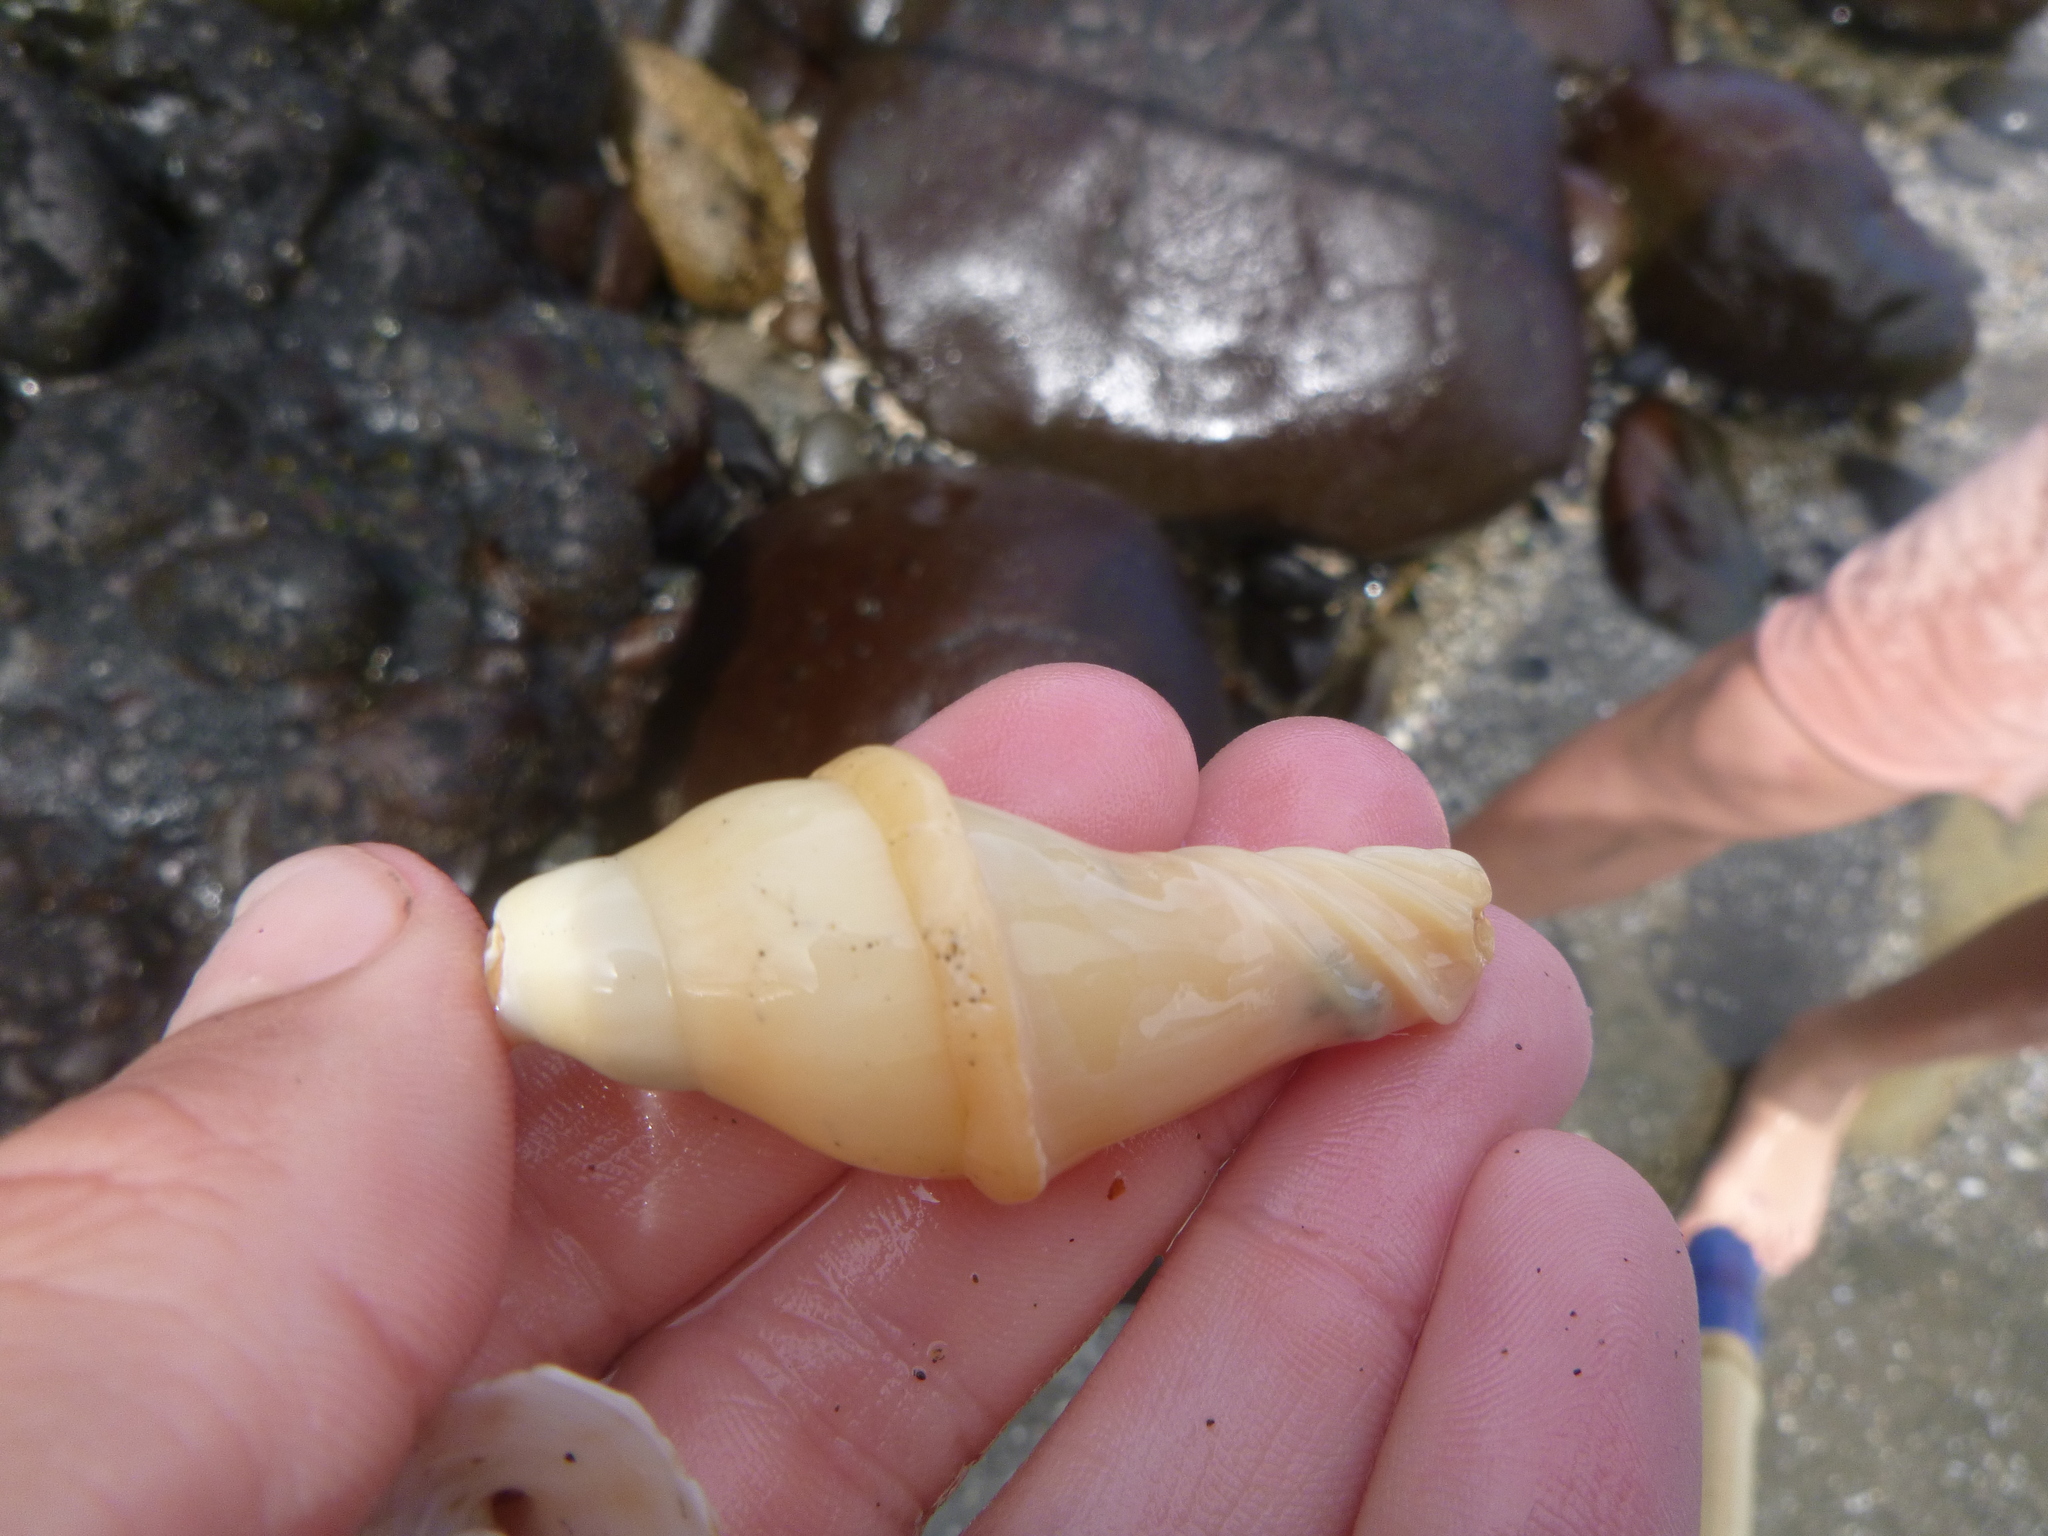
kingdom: Animalia
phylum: Mollusca
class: Gastropoda
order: Neogastropoda
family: Volutidae
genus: Alcithoe
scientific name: Alcithoe arabica
